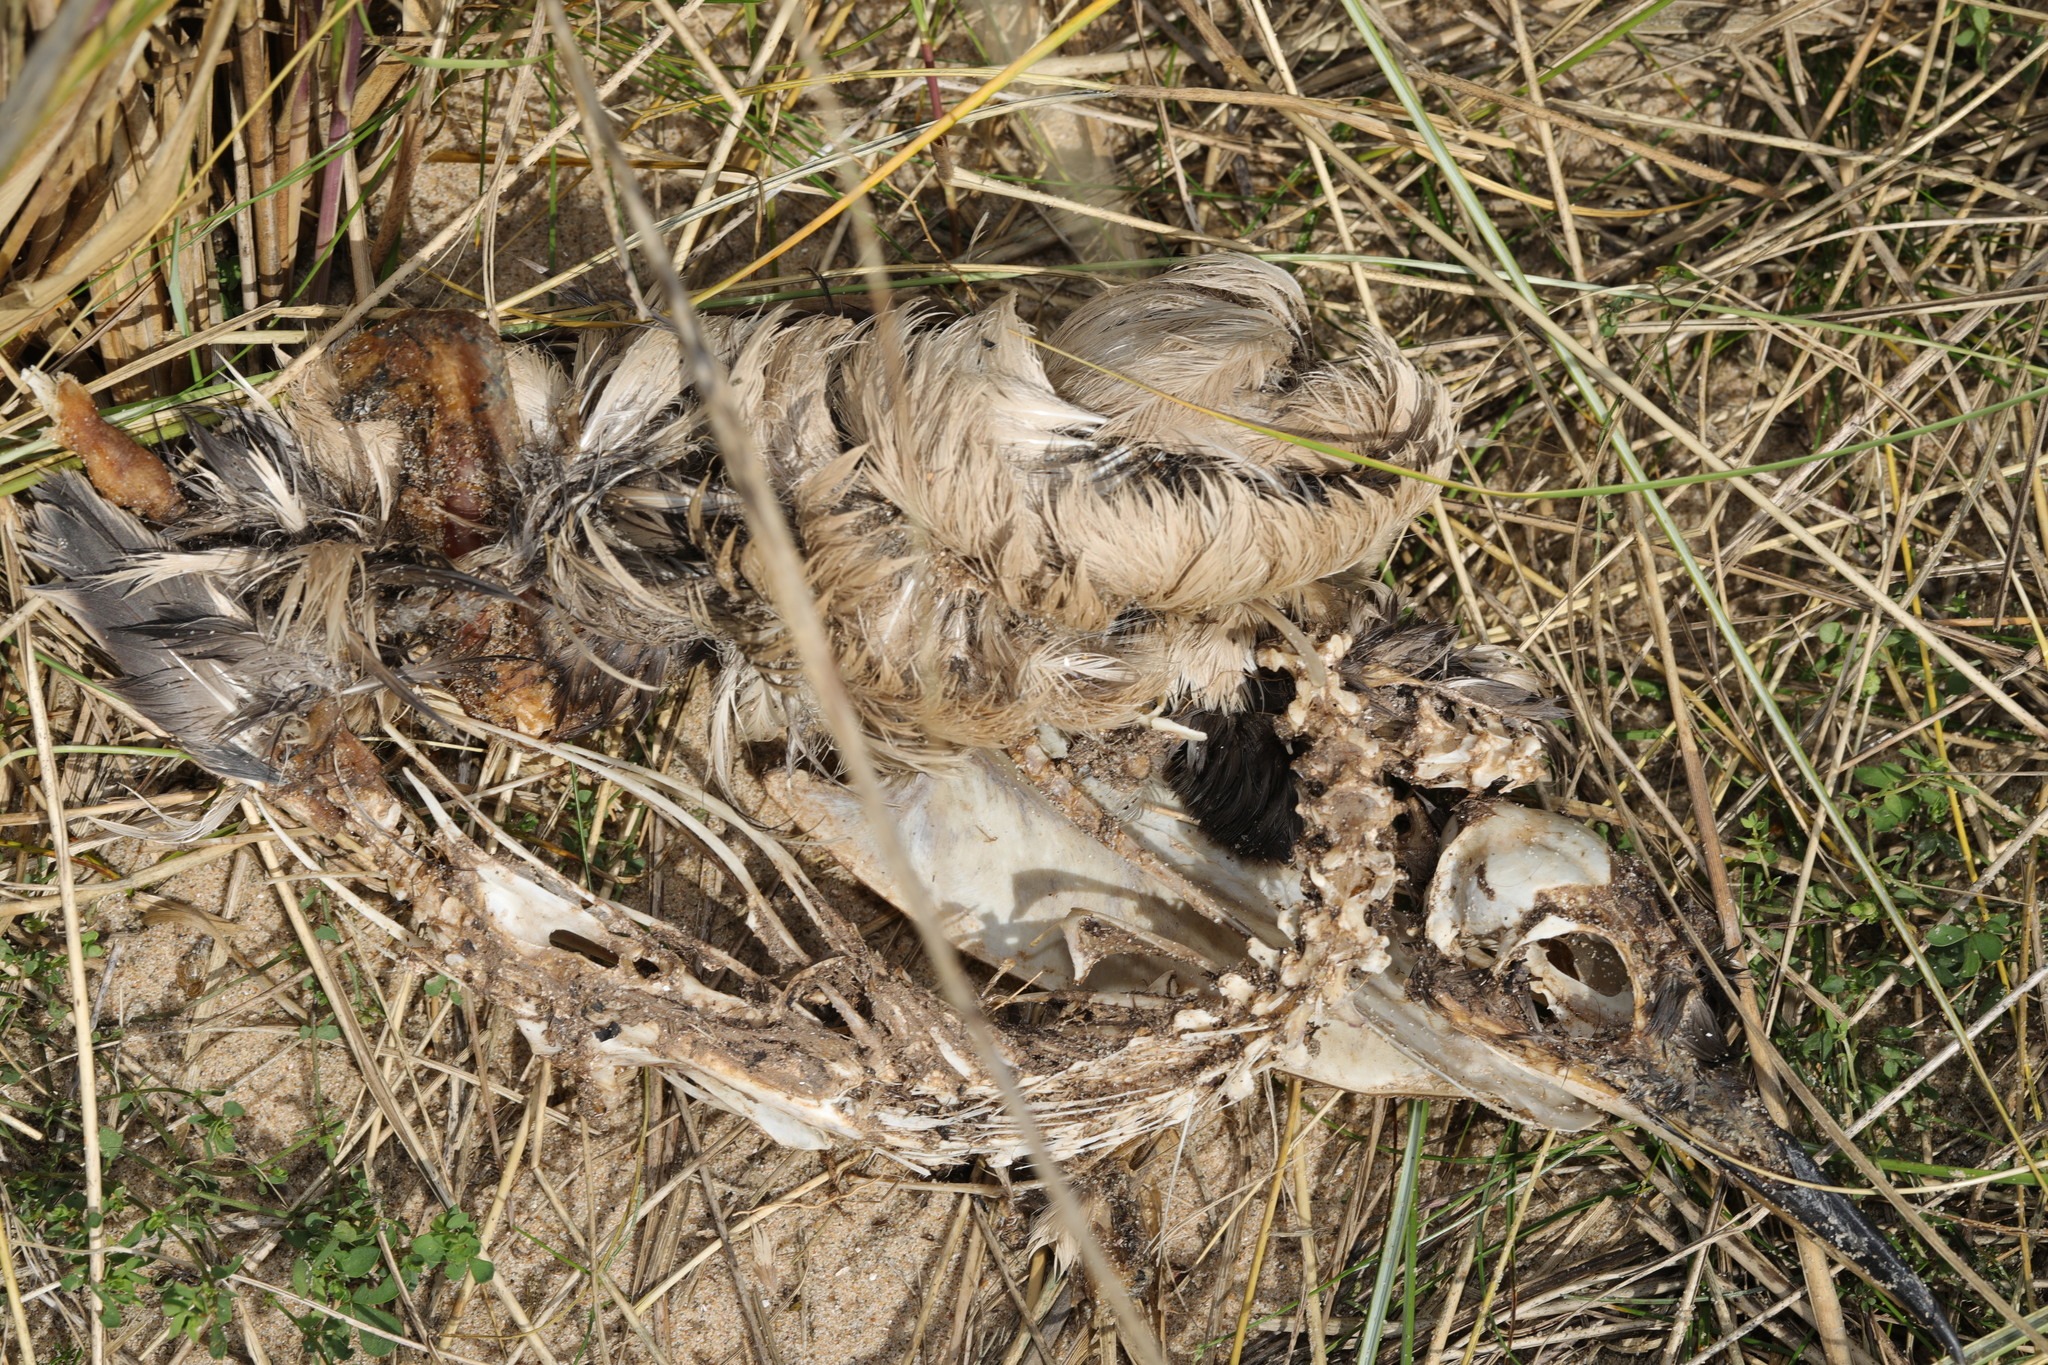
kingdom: Animalia
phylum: Chordata
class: Aves
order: Charadriiformes
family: Alcidae
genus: Uria
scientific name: Uria aalge
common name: Common murre
